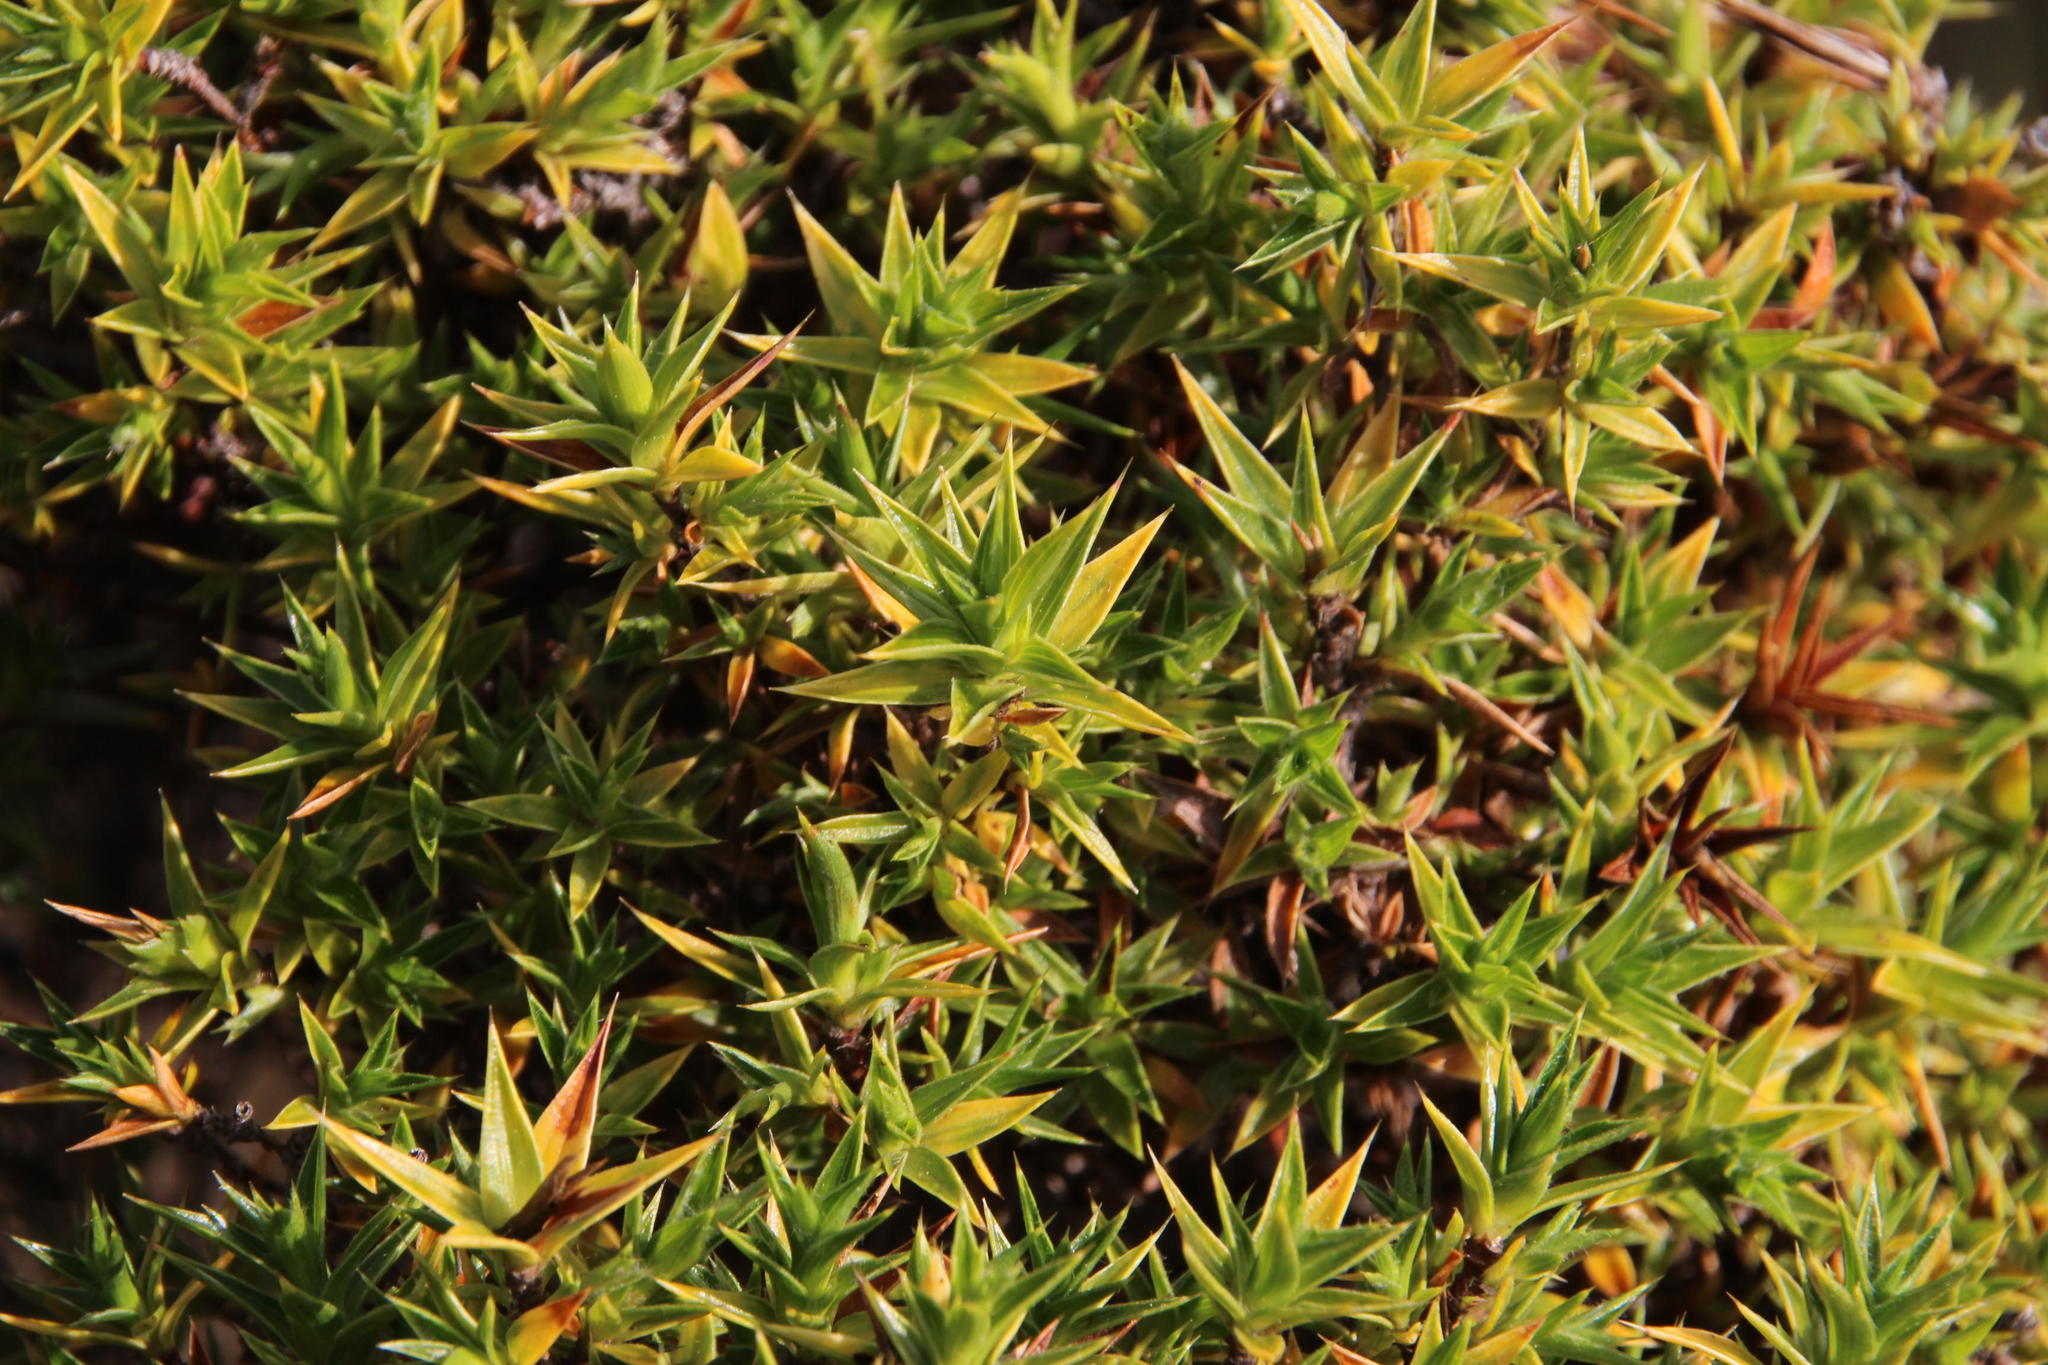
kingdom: Plantae
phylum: Tracheophyta
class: Magnoliopsida
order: Rosales
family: Rosaceae
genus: Cliffortia
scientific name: Cliffortia ruscifolia
